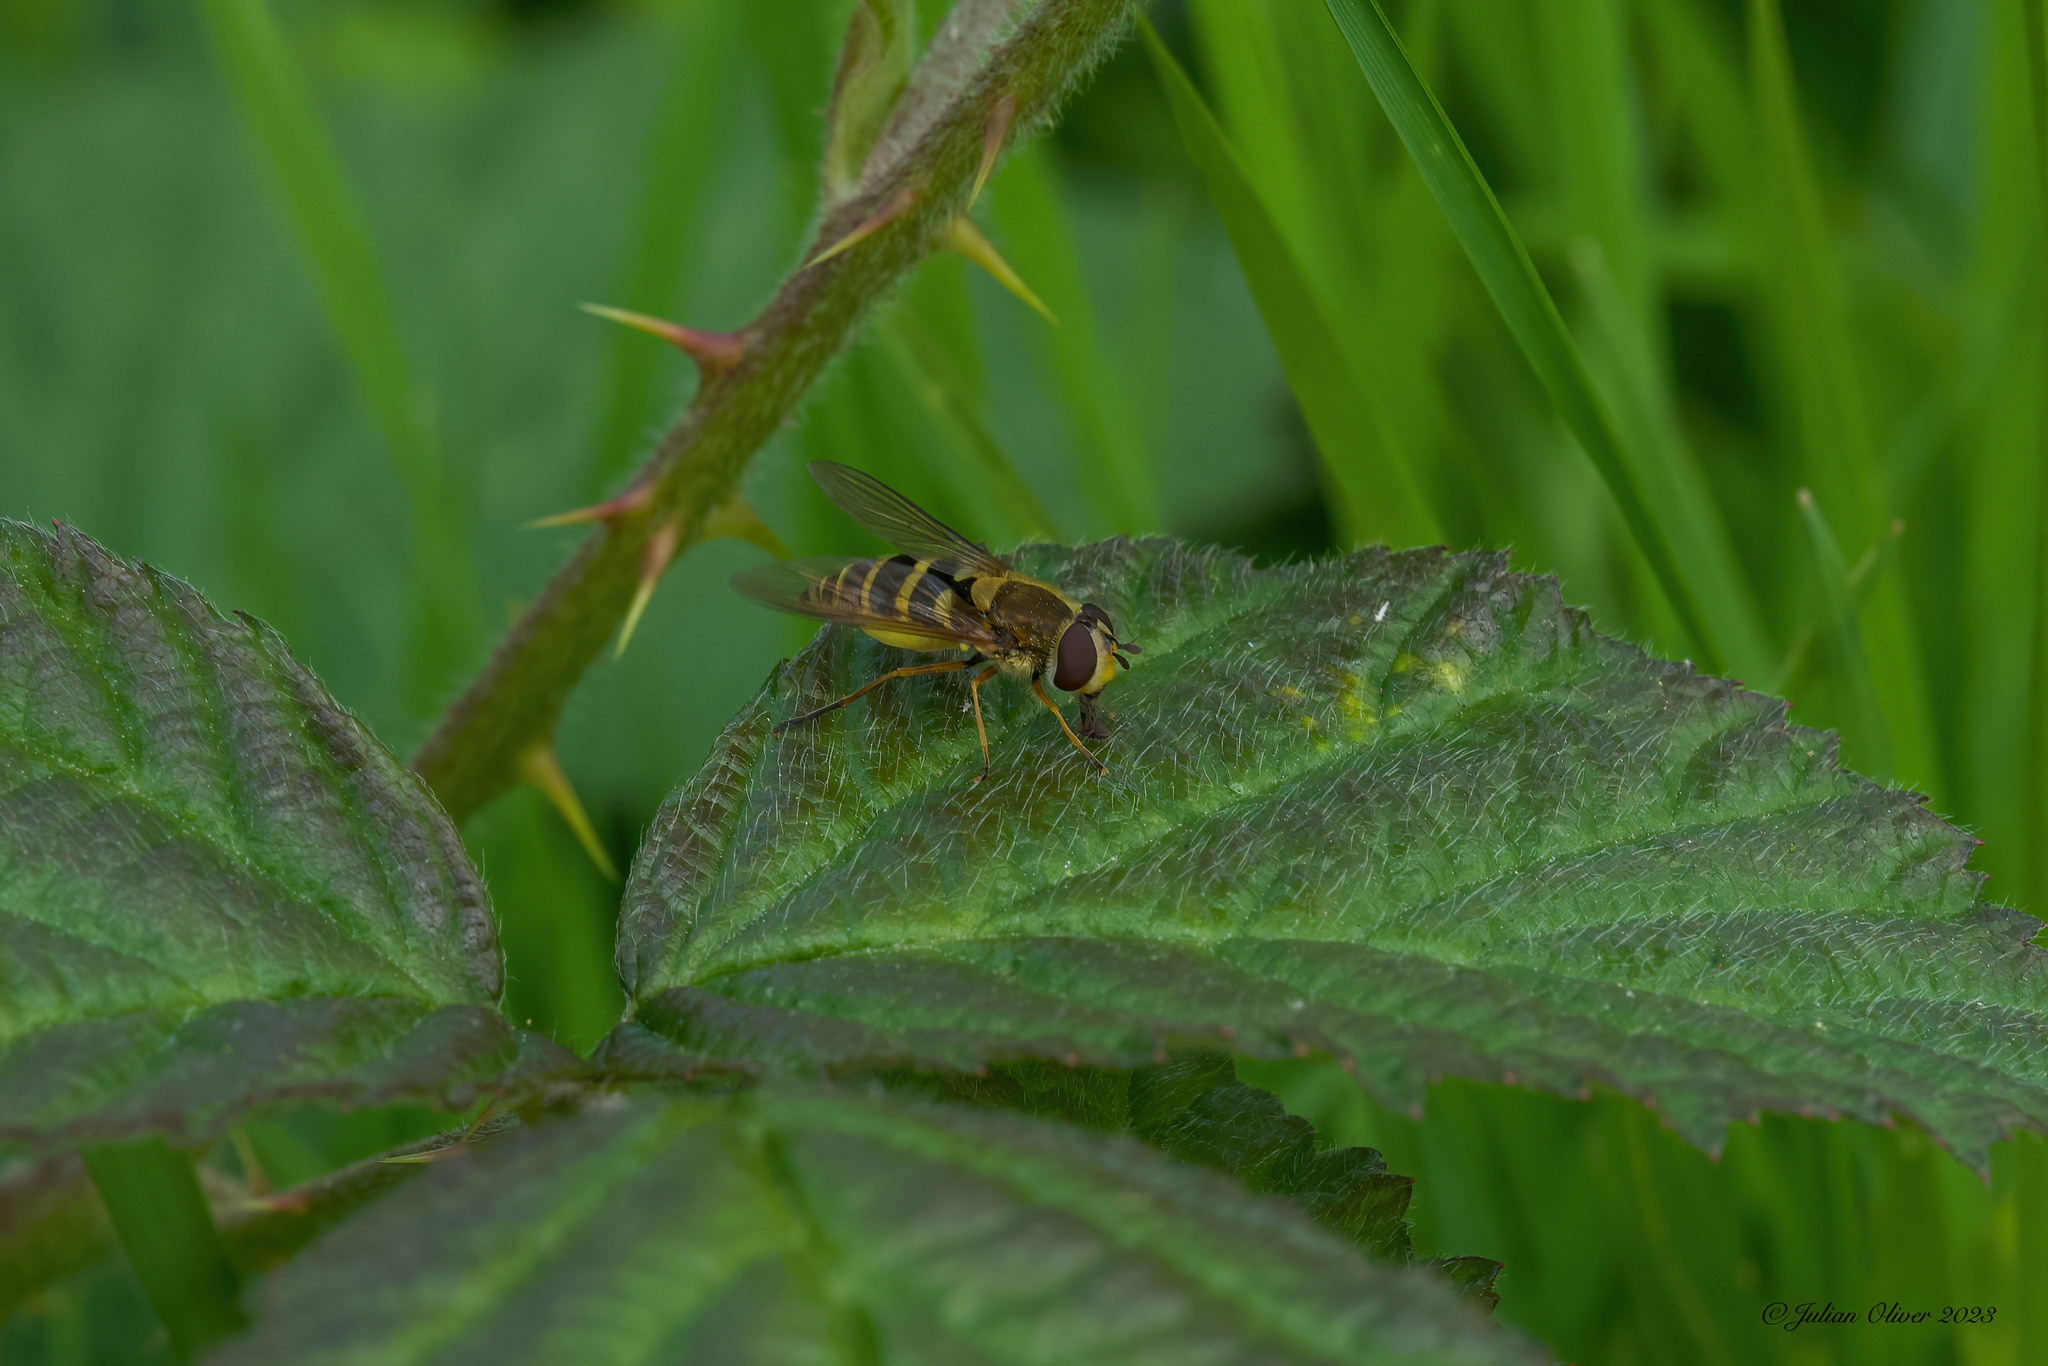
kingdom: Animalia
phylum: Arthropoda
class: Insecta
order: Diptera
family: Syrphidae
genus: Syrphus
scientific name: Syrphus ribesii
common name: Common flower fly
